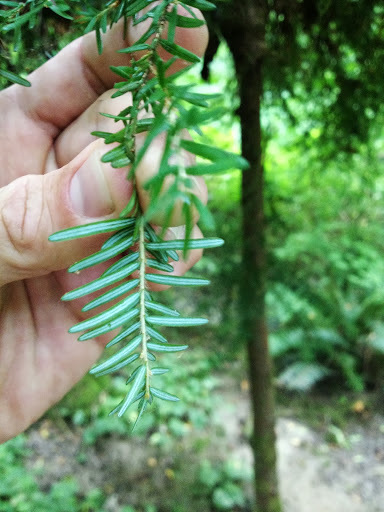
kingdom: Plantae
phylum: Tracheophyta
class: Pinopsida
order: Pinales
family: Pinaceae
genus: Tsuga
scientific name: Tsuga heterophylla
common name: Western hemlock
